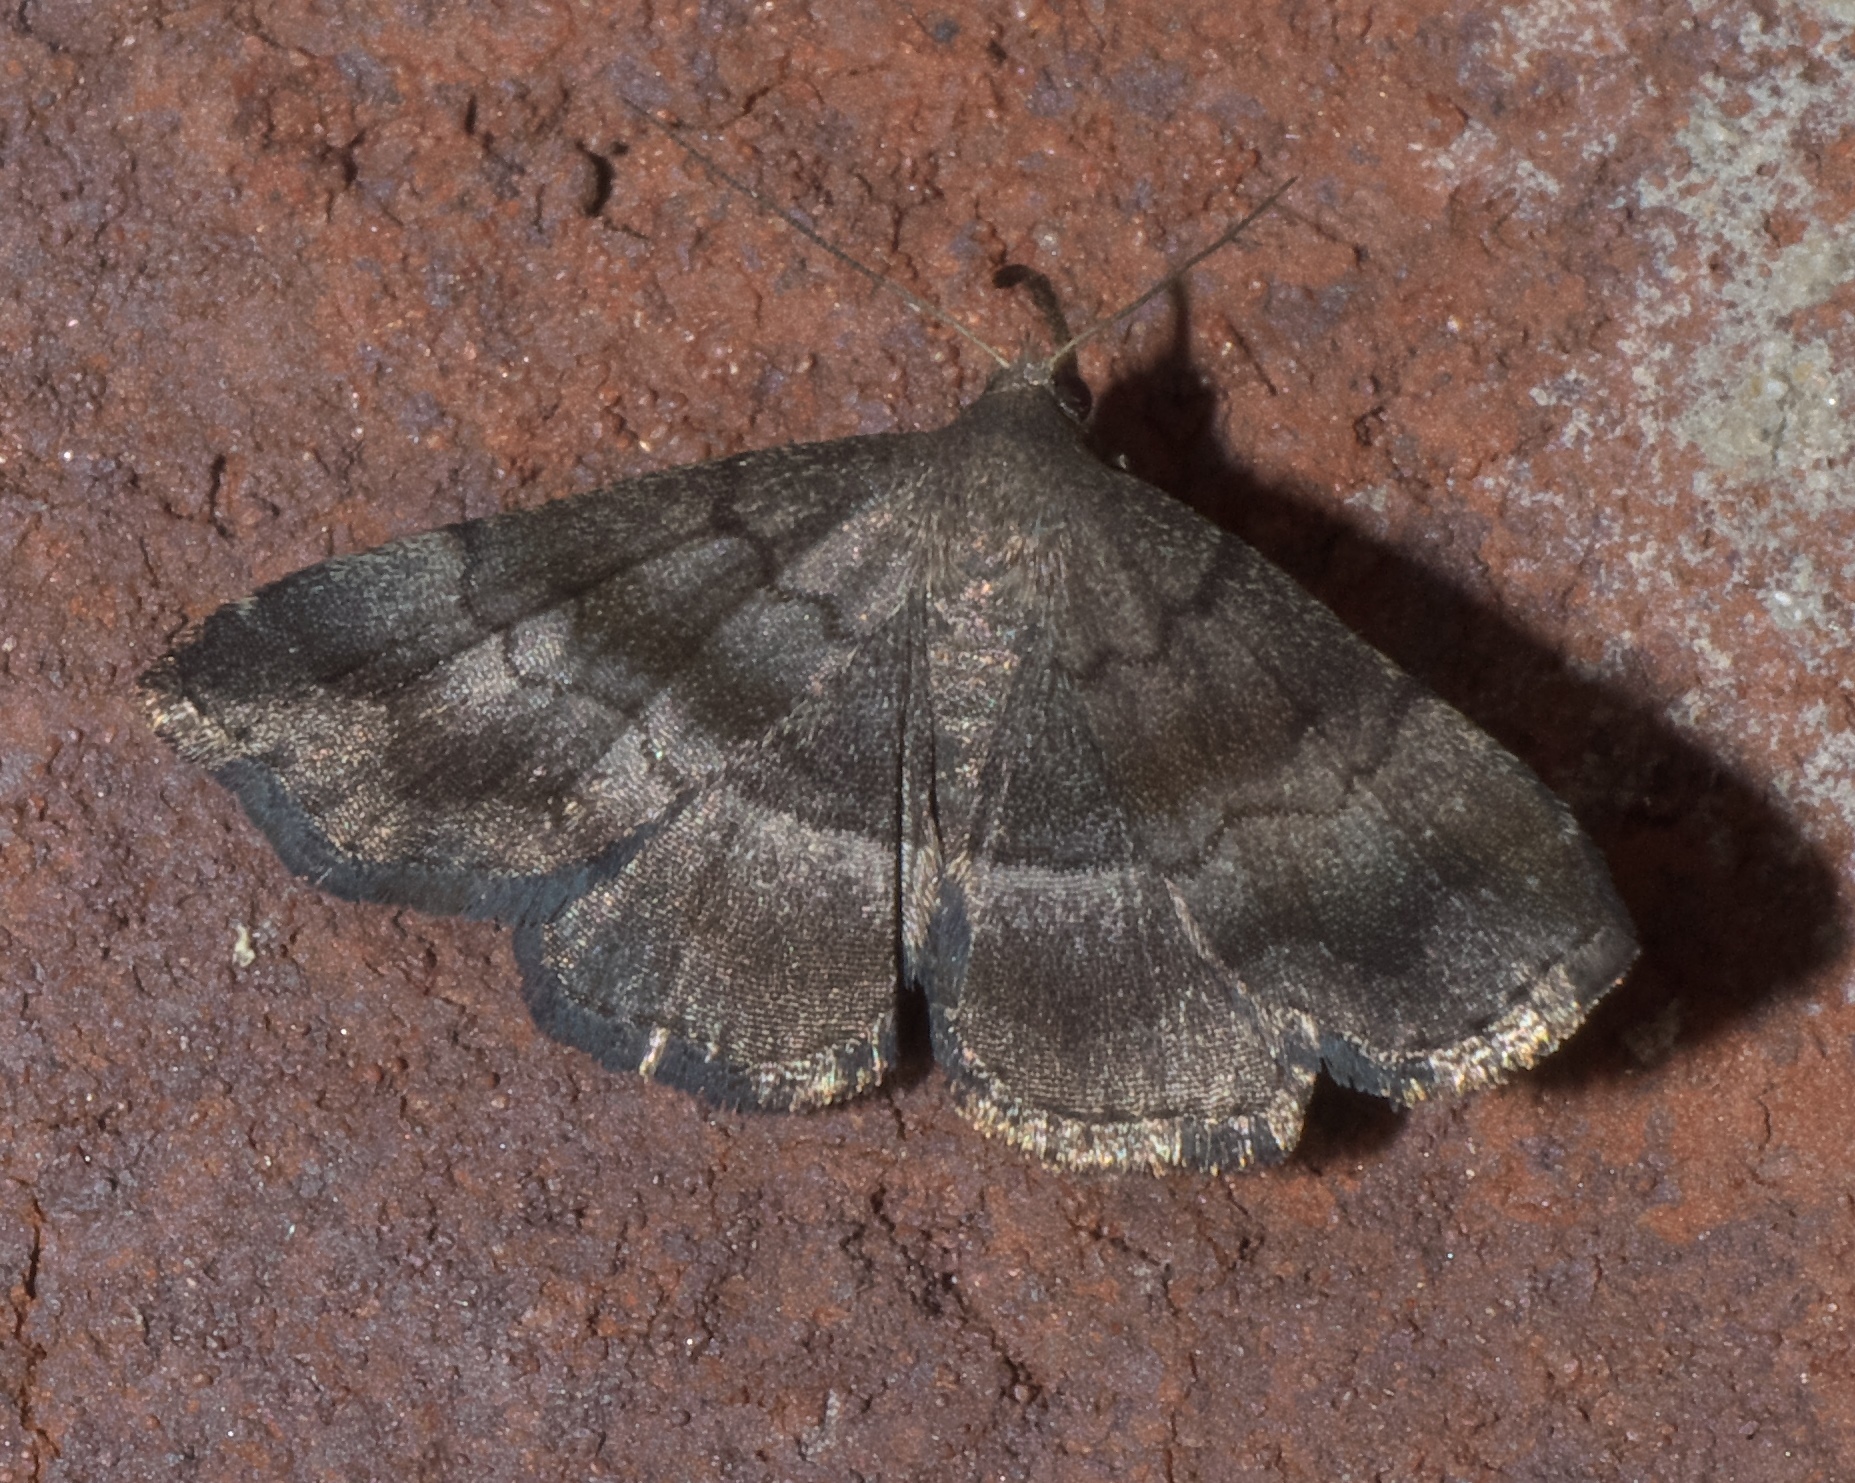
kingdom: Animalia
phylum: Arthropoda
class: Insecta
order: Lepidoptera
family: Erebidae
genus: Phalaenostola
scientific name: Phalaenostola larentioides
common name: Black-banded owlet
